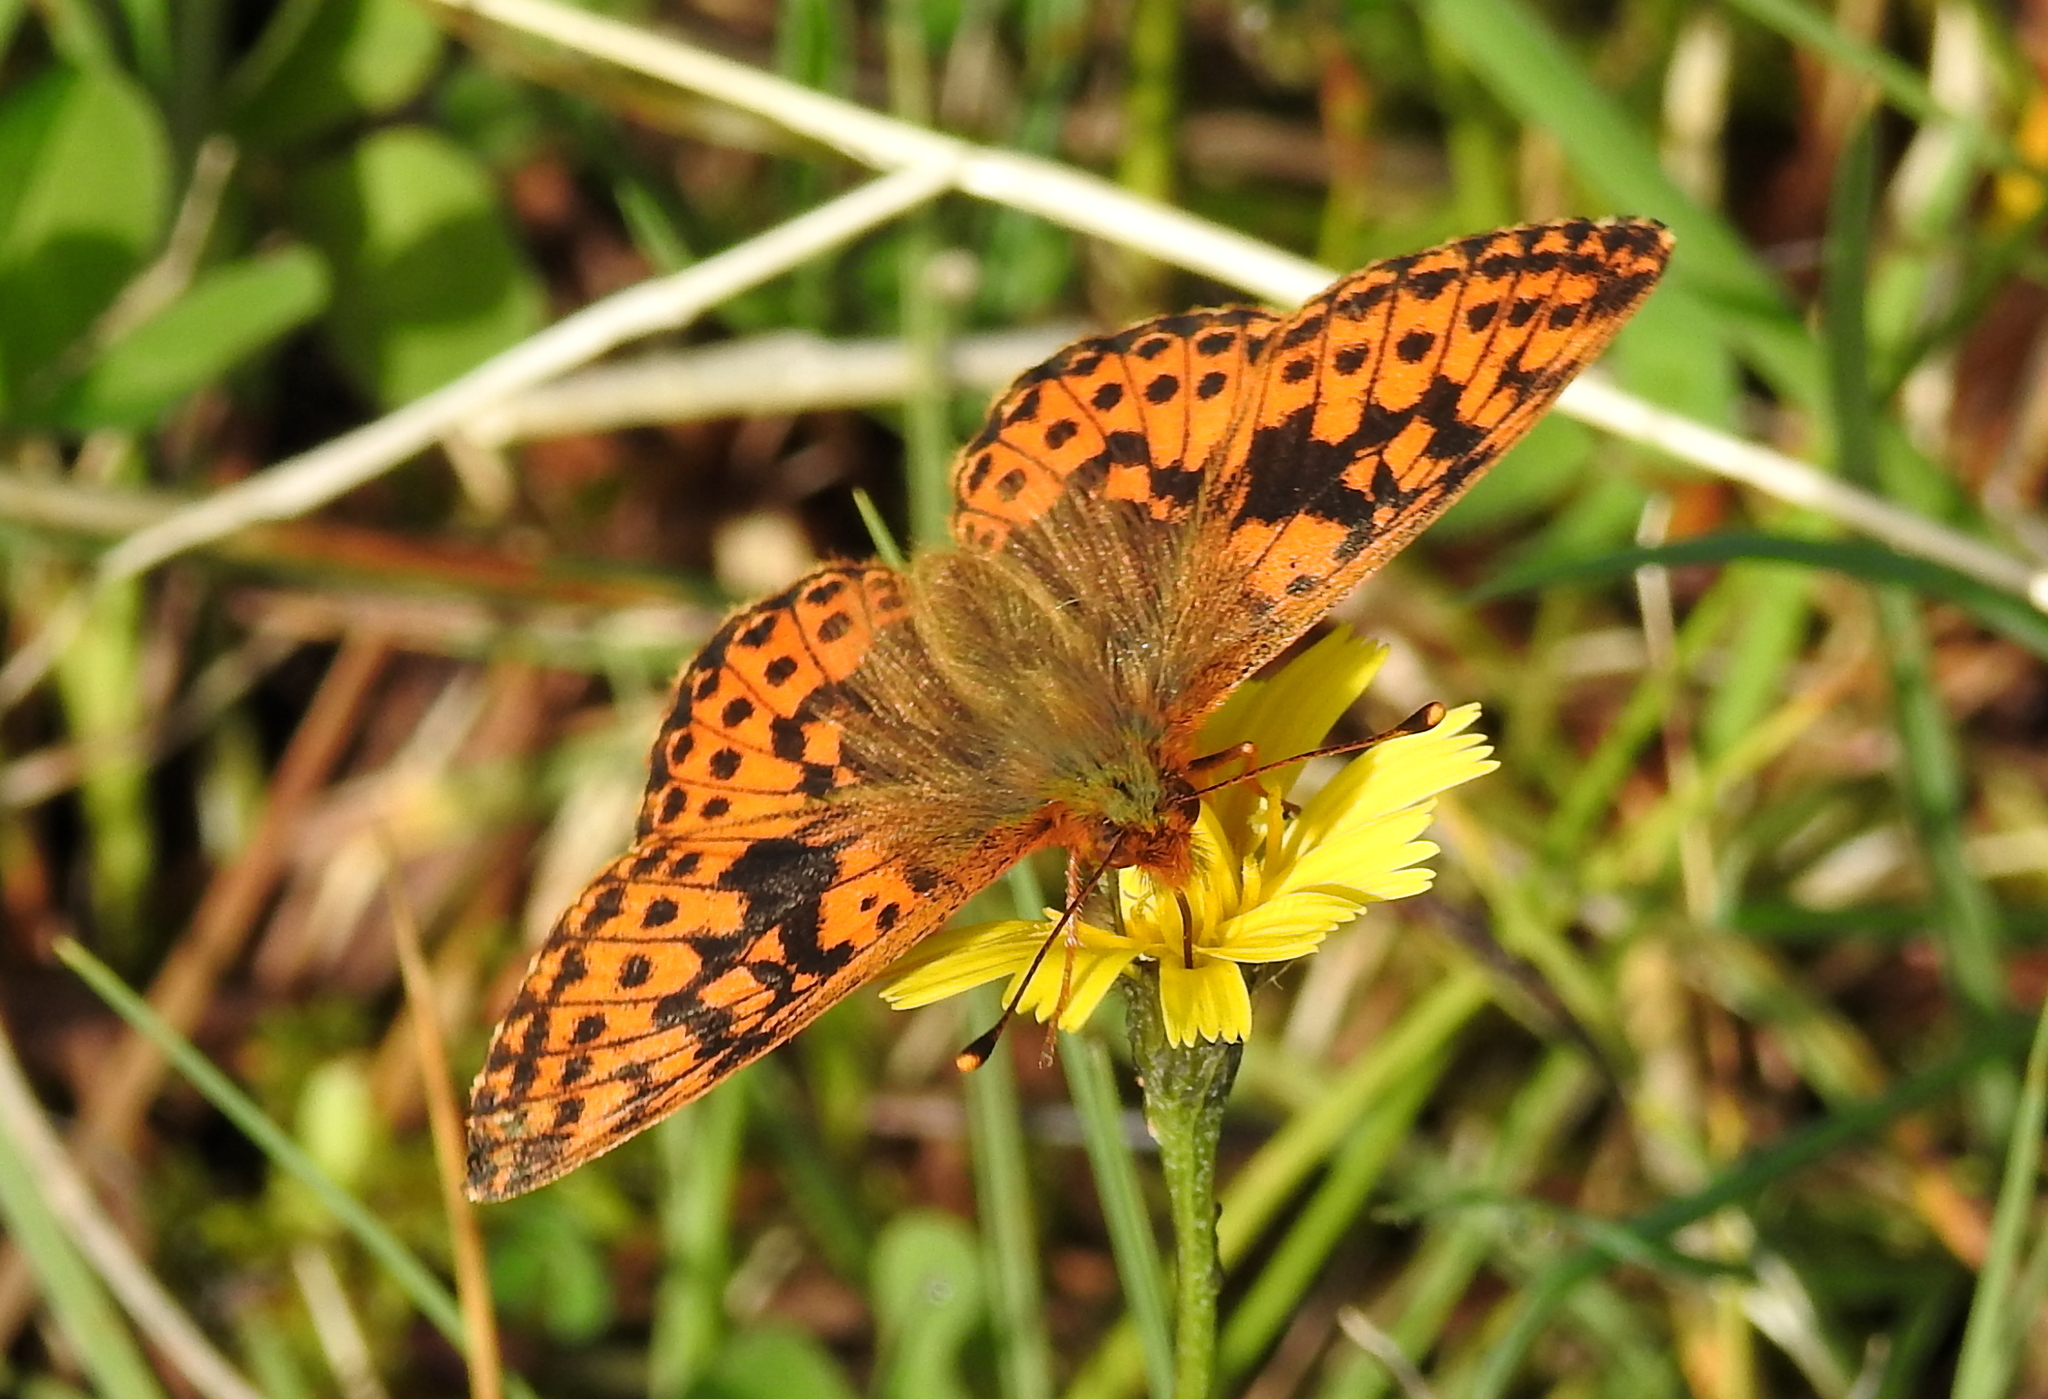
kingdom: Animalia
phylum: Arthropoda
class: Insecta
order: Lepidoptera
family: Nymphalidae
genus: Boloria
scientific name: Boloria aquilonaris
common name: Cranberry fritillary
